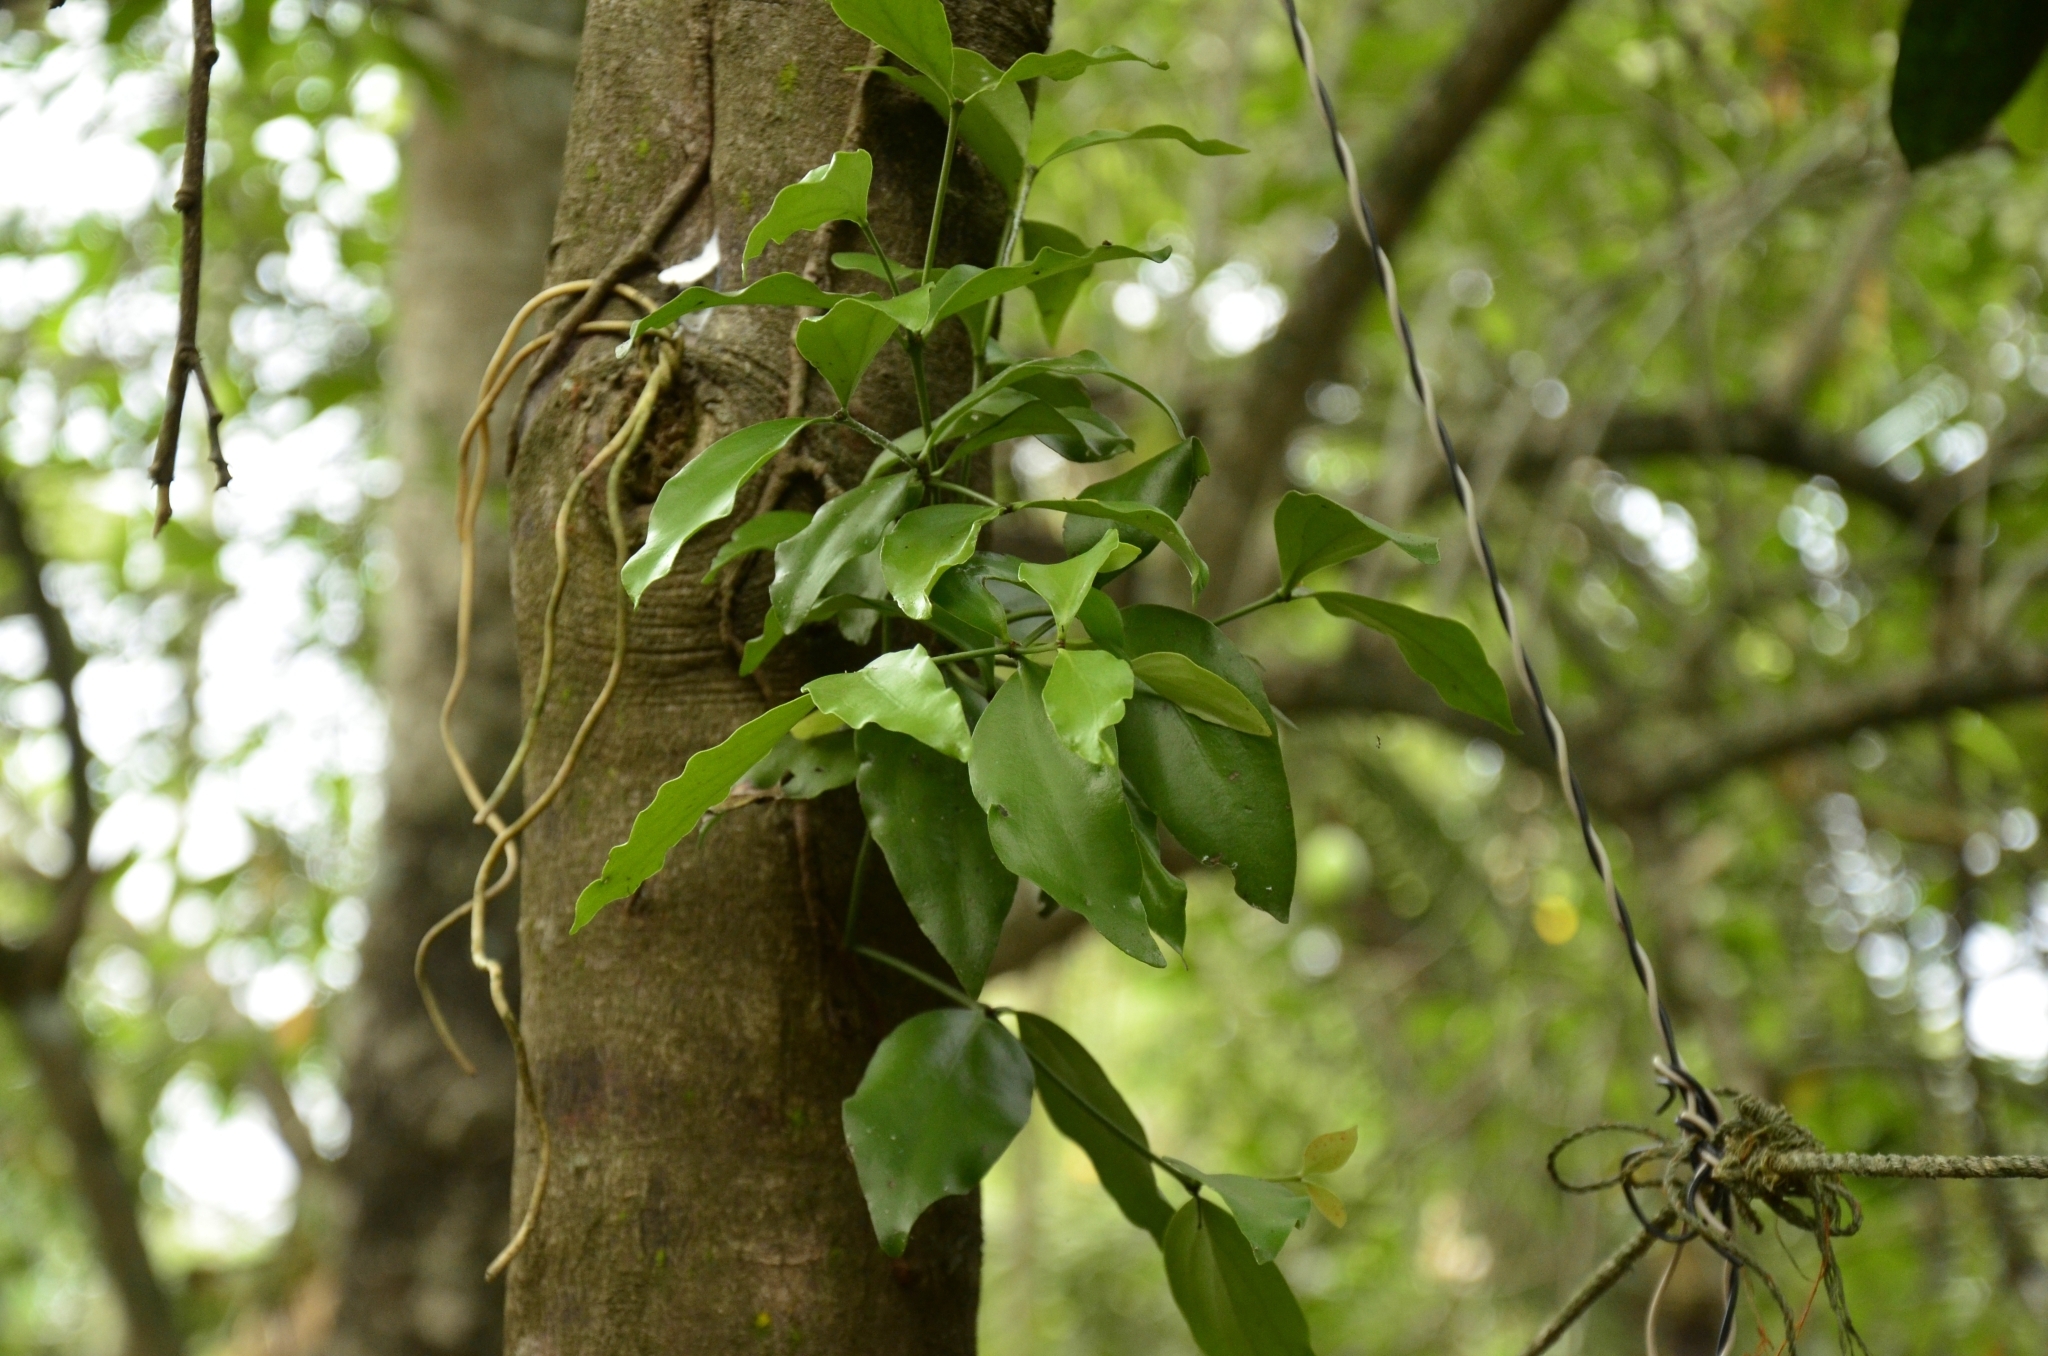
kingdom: Plantae
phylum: Tracheophyta
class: Magnoliopsida
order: Santalales
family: Loranthaceae
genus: Dendrophthoe
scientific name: Dendrophthoe falcata
